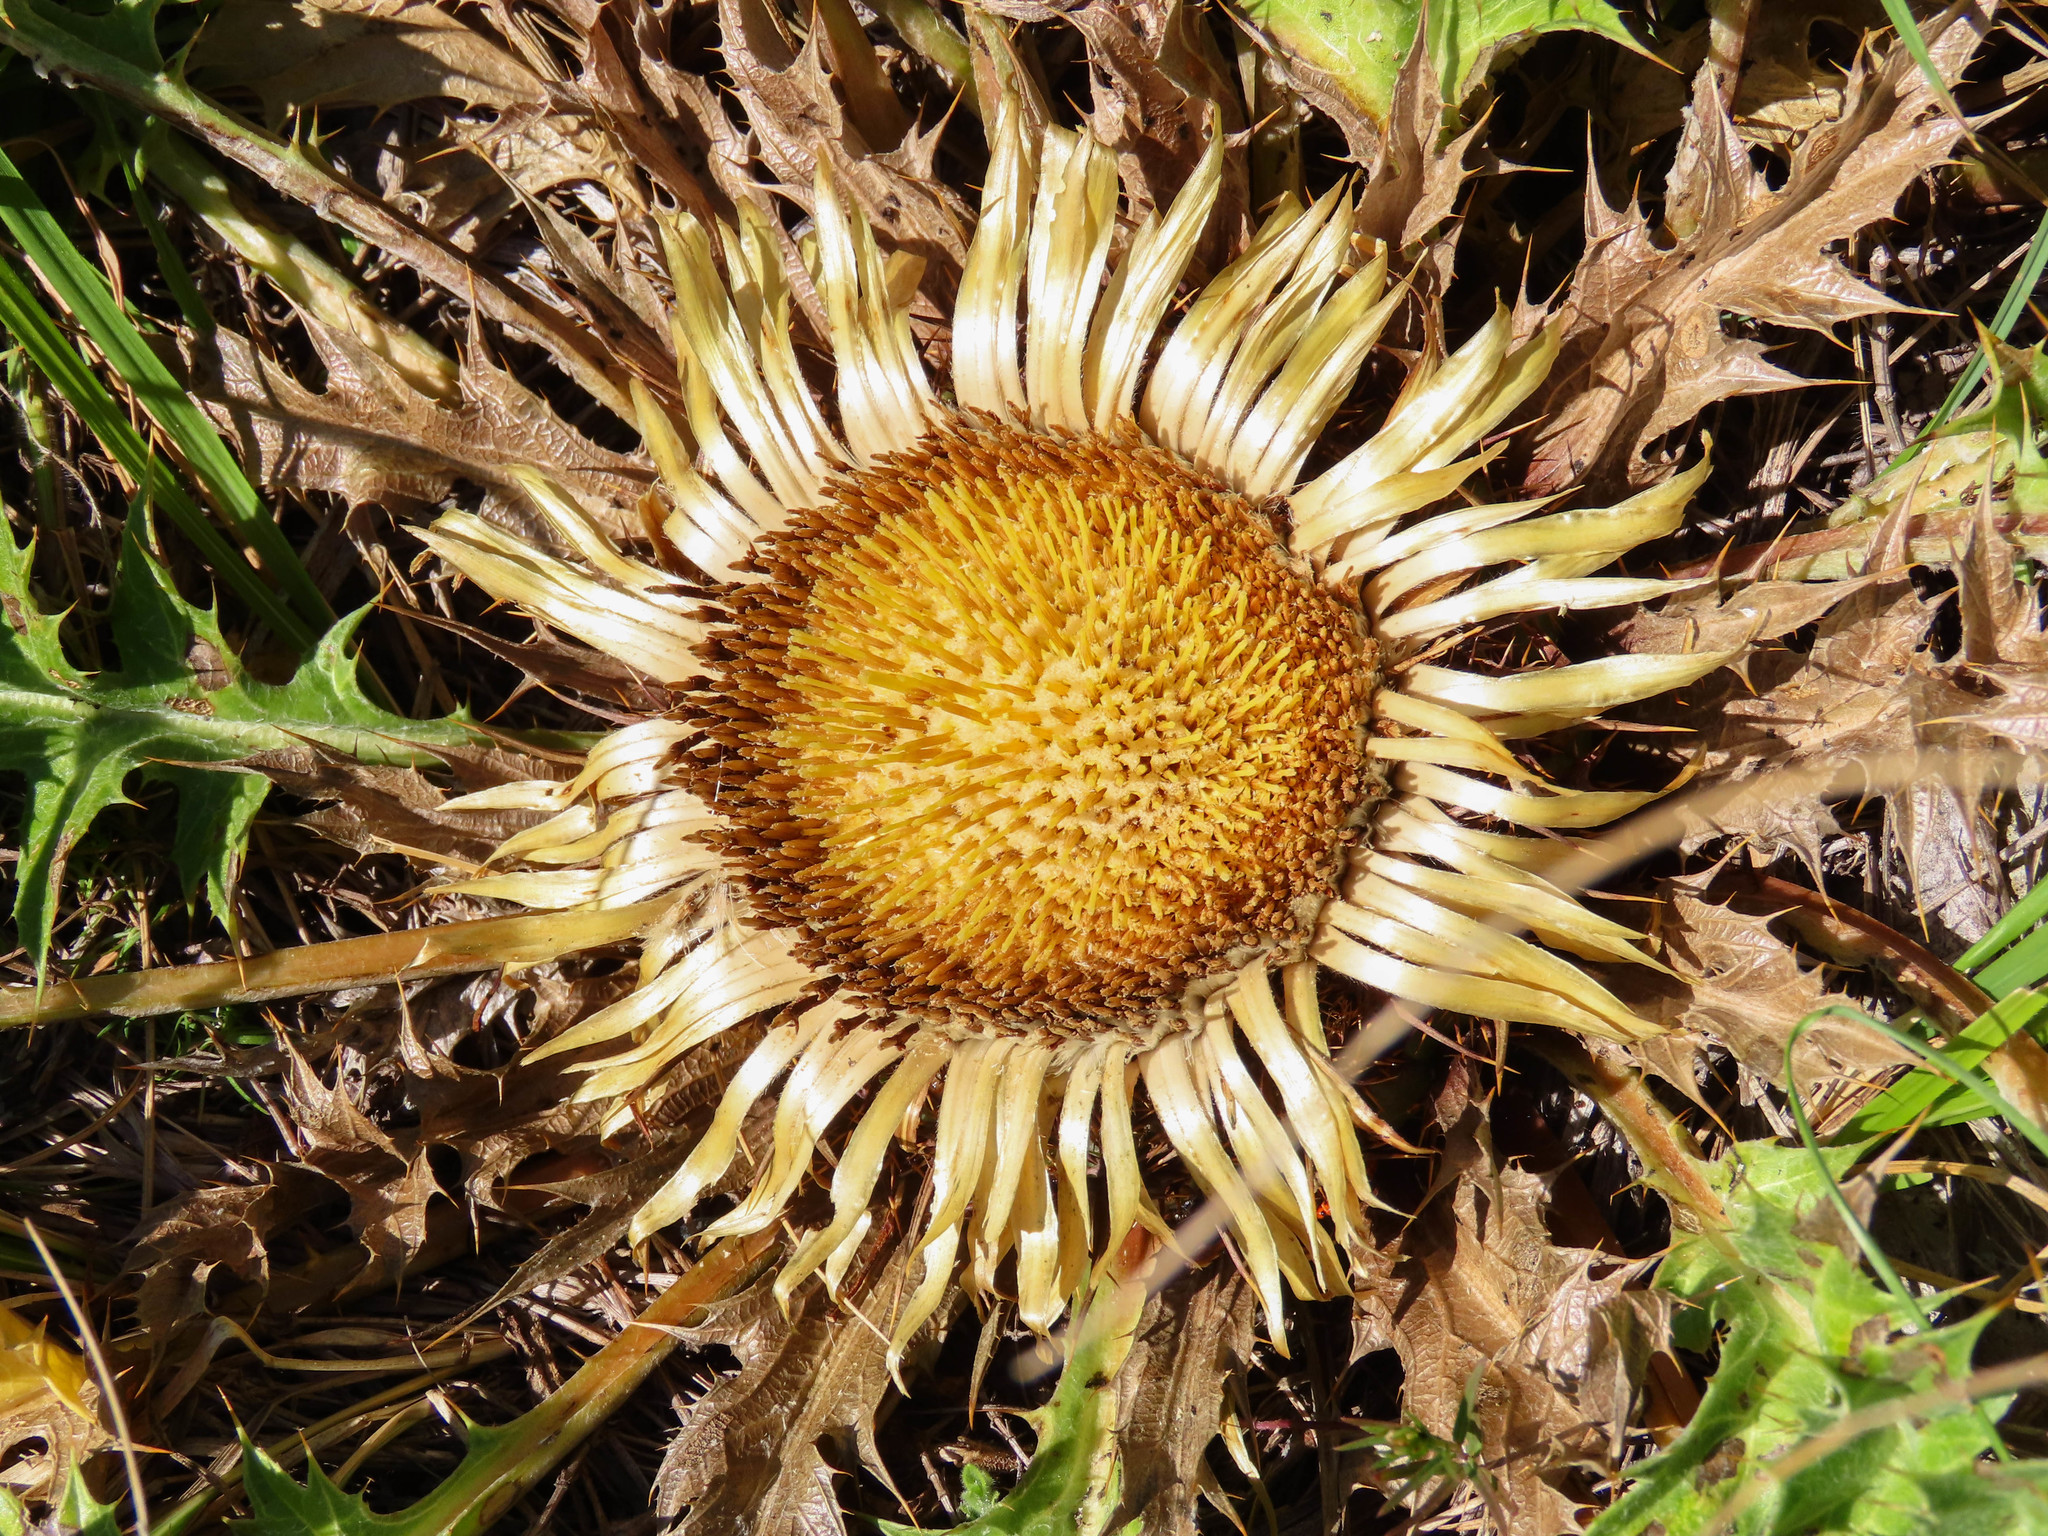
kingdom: Plantae
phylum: Tracheophyta
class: Magnoliopsida
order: Asterales
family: Asteraceae
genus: Carlina
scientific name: Carlina acanthifolia
